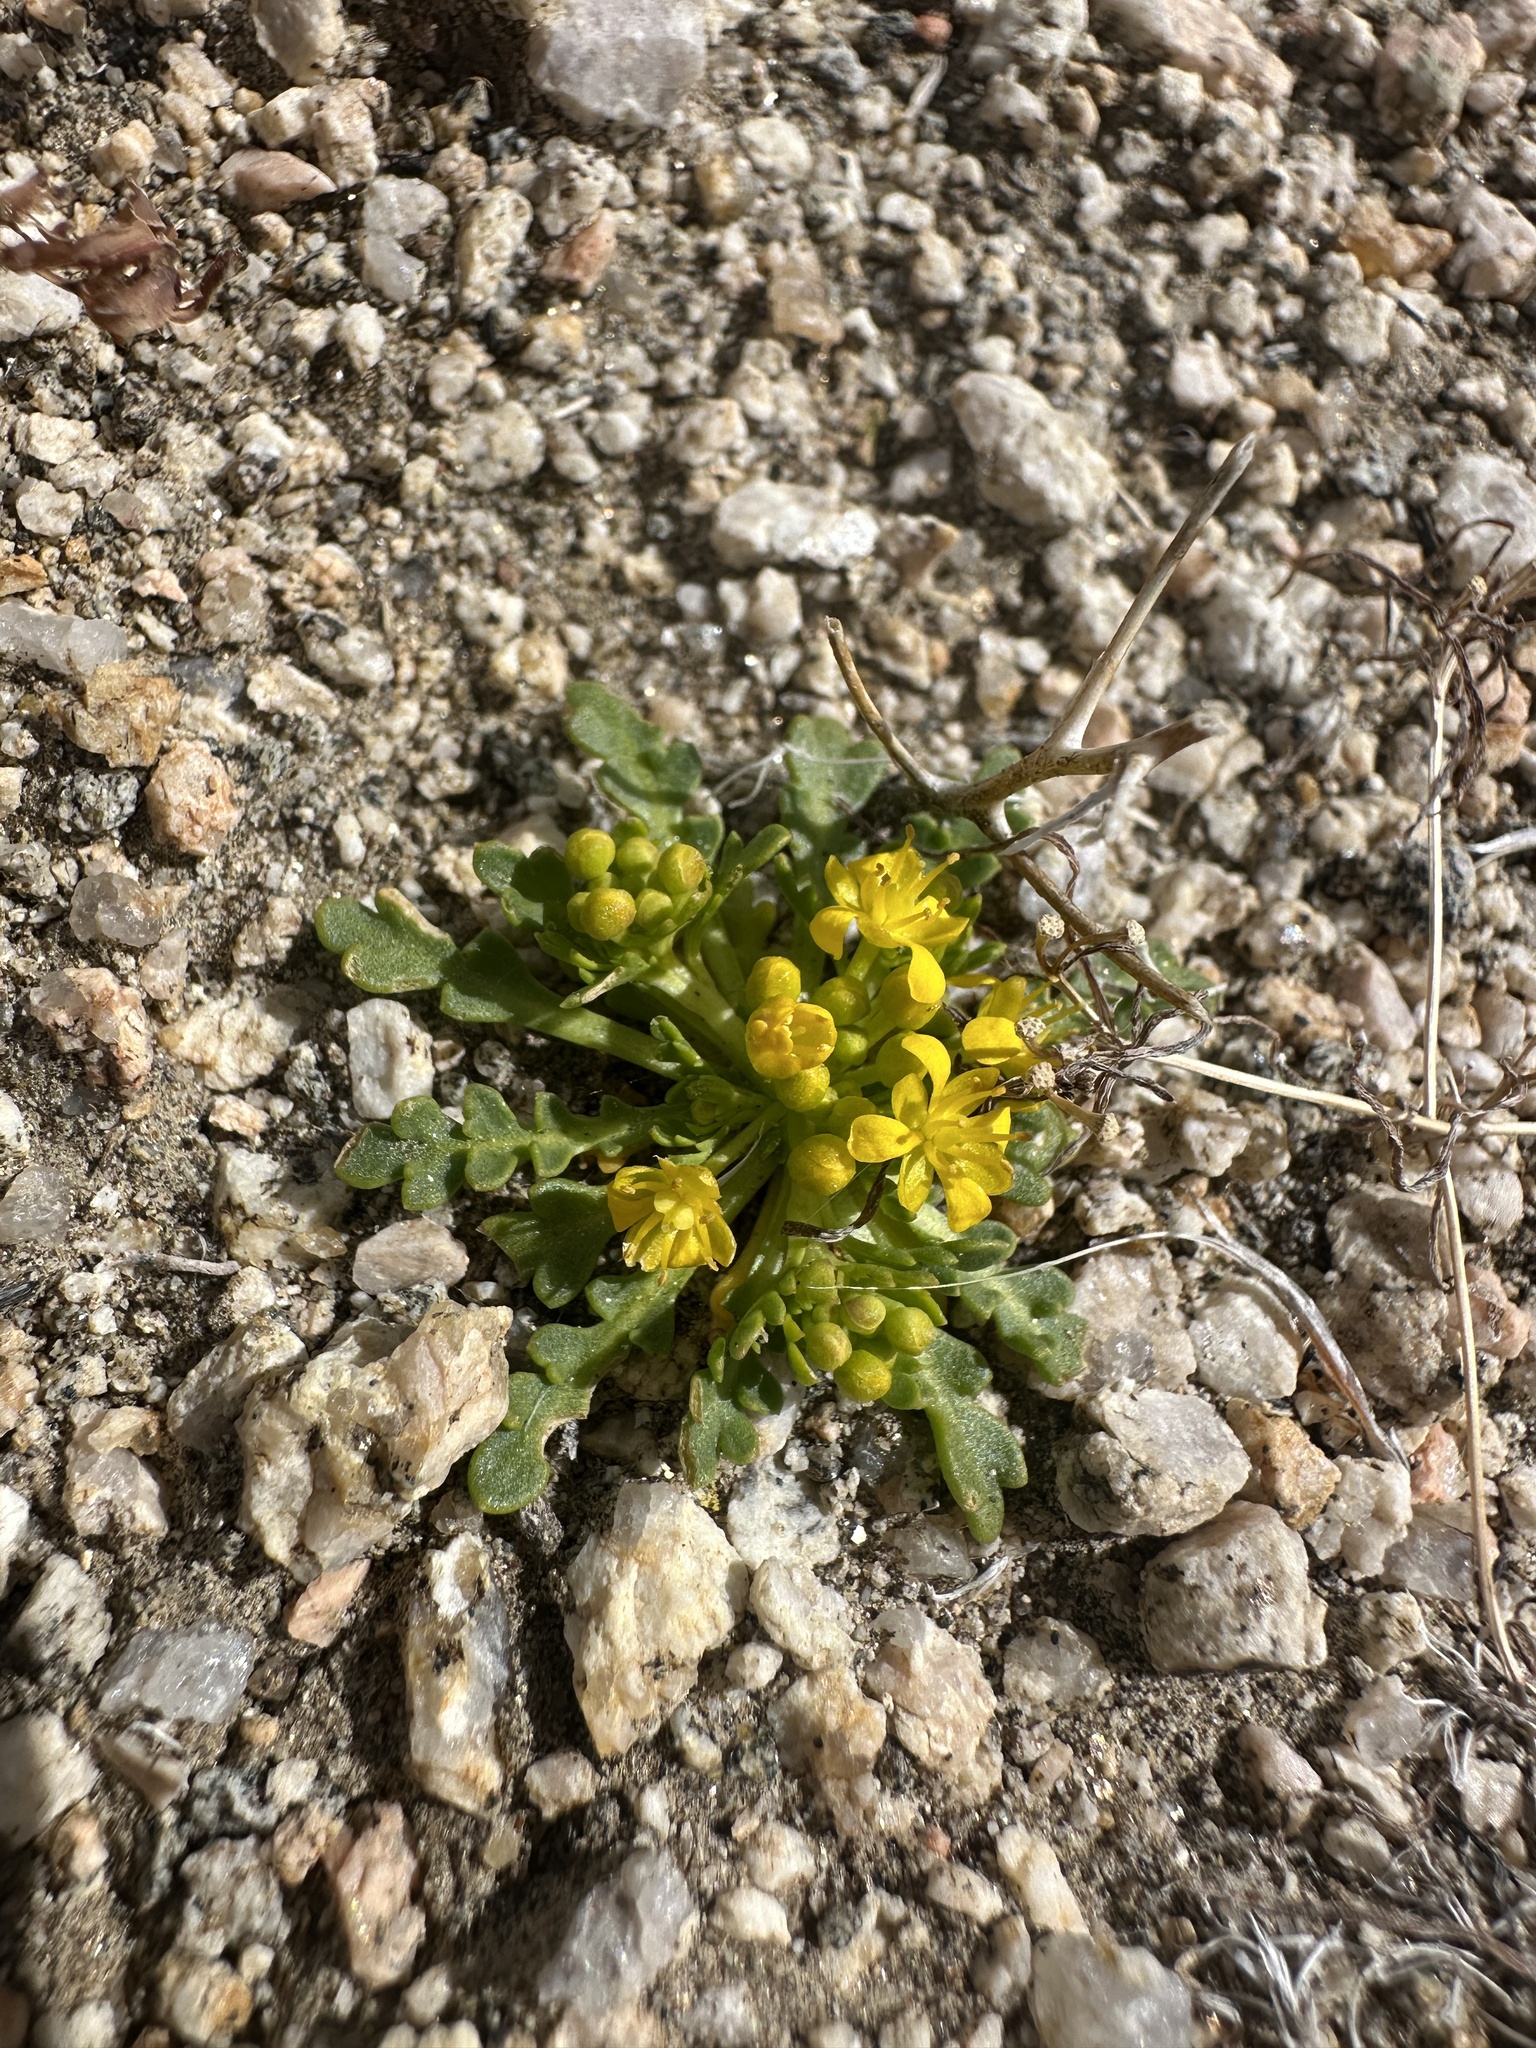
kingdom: Plantae
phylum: Tracheophyta
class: Magnoliopsida
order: Brassicales
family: Brassicaceae
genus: Lepidium
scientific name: Lepidium flavum
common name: Yellow pepperwort
